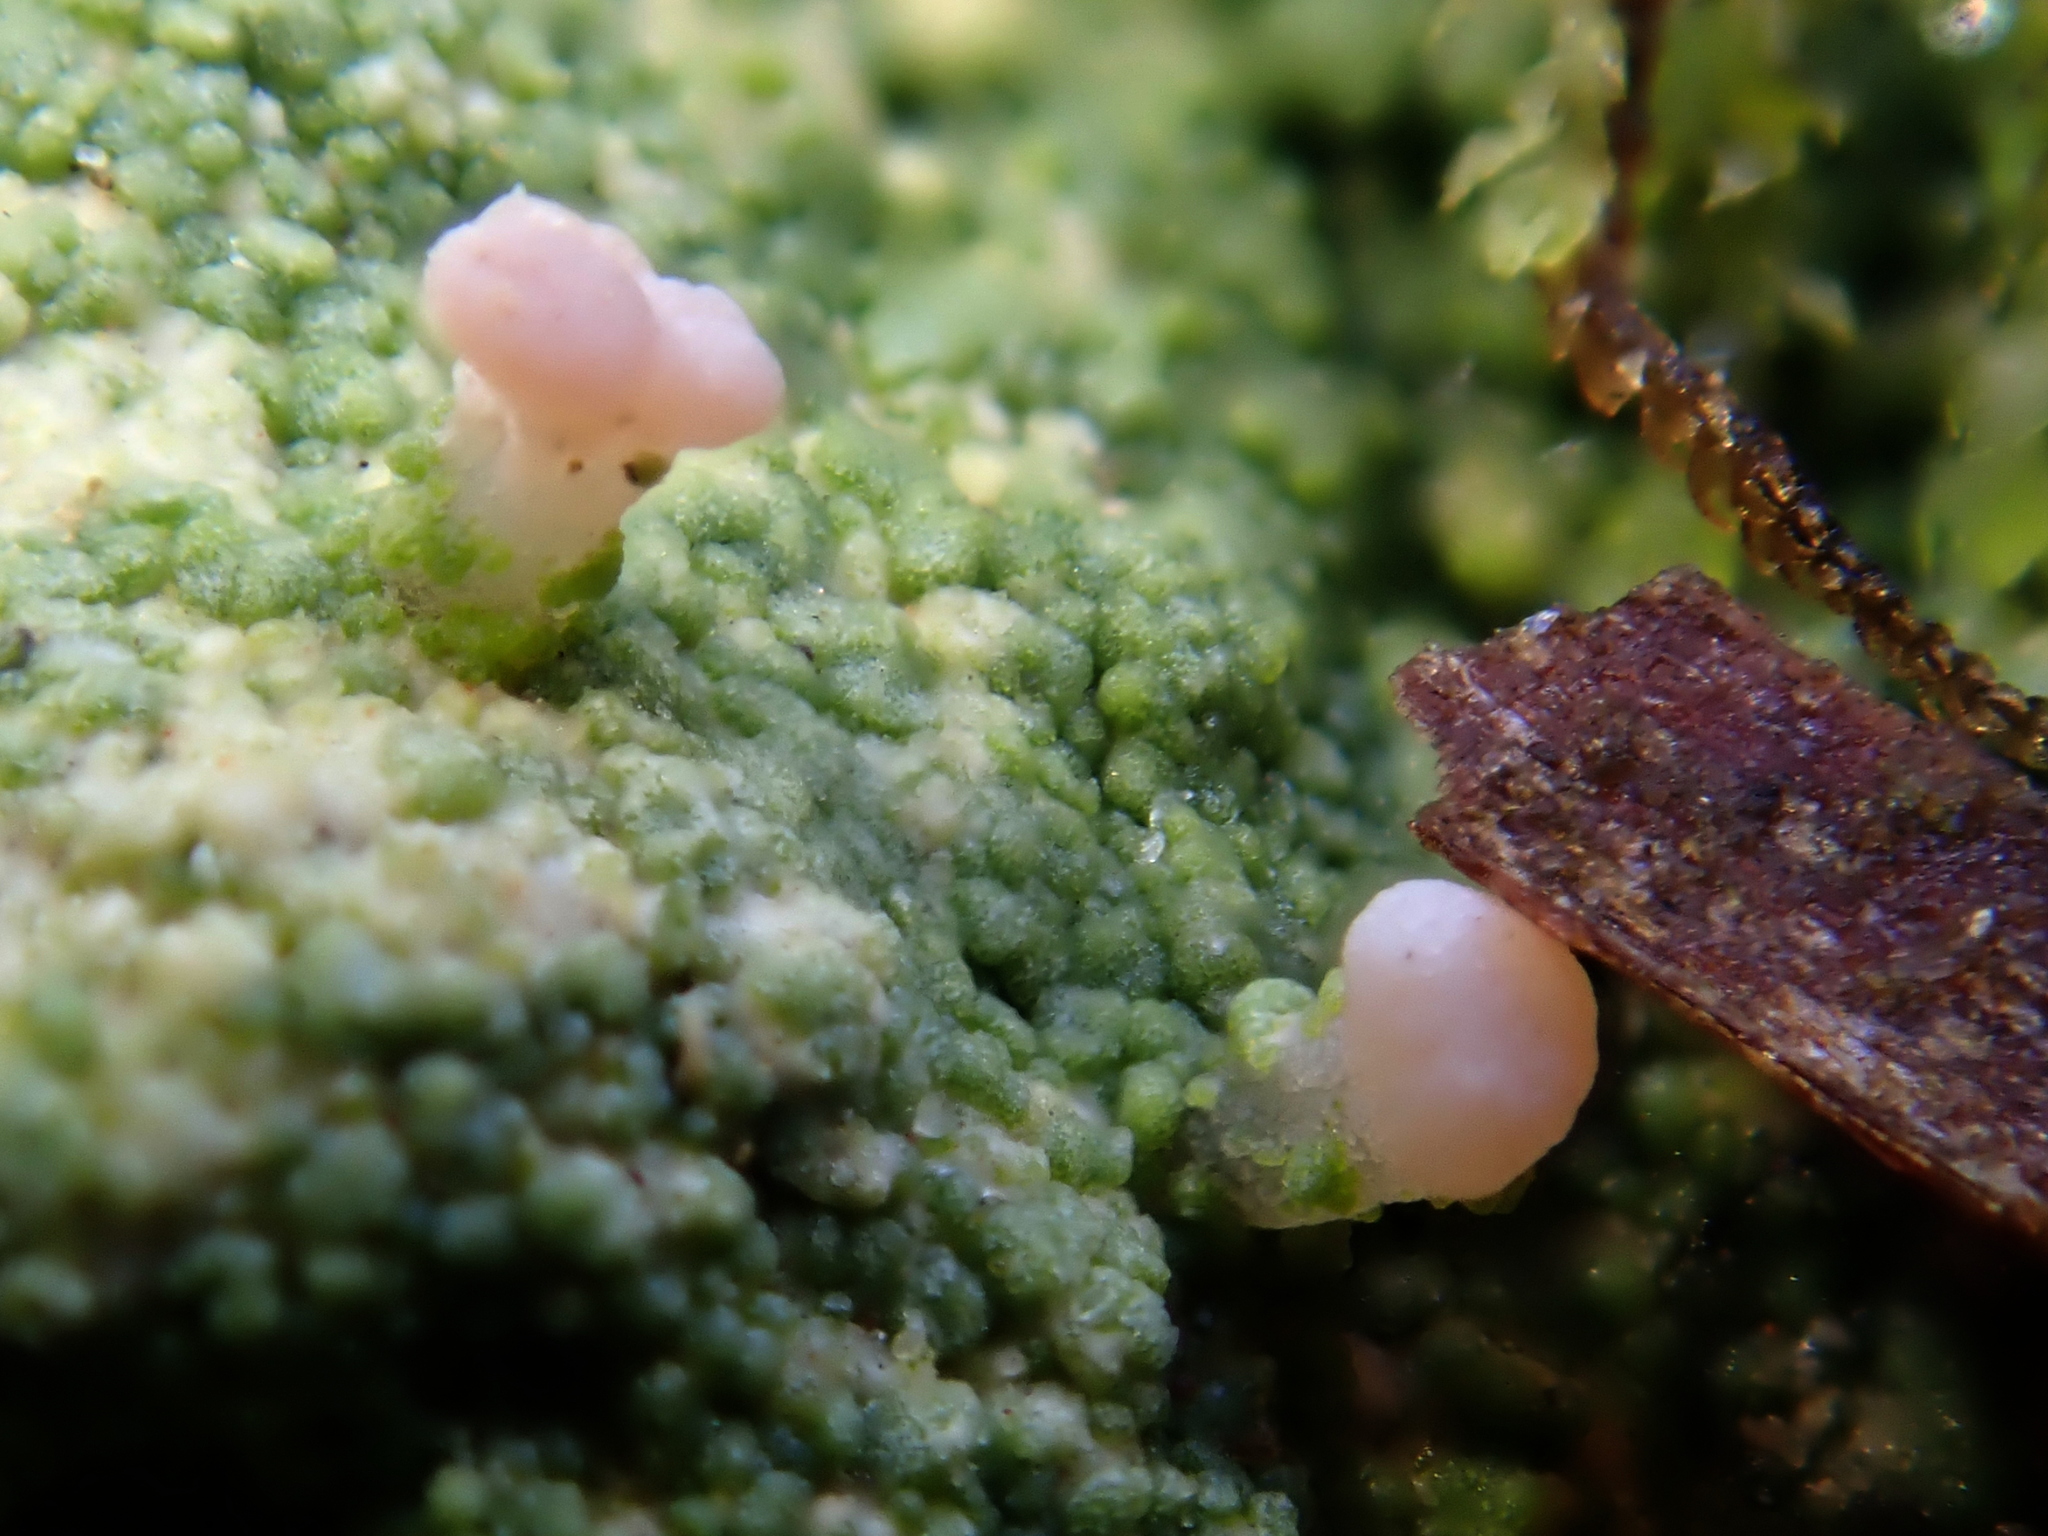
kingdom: Fungi
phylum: Ascomycota
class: Lecanoromycetes
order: Baeomycetales
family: Baeomycetaceae
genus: Baeomyces
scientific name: Baeomyces heteromorphus
